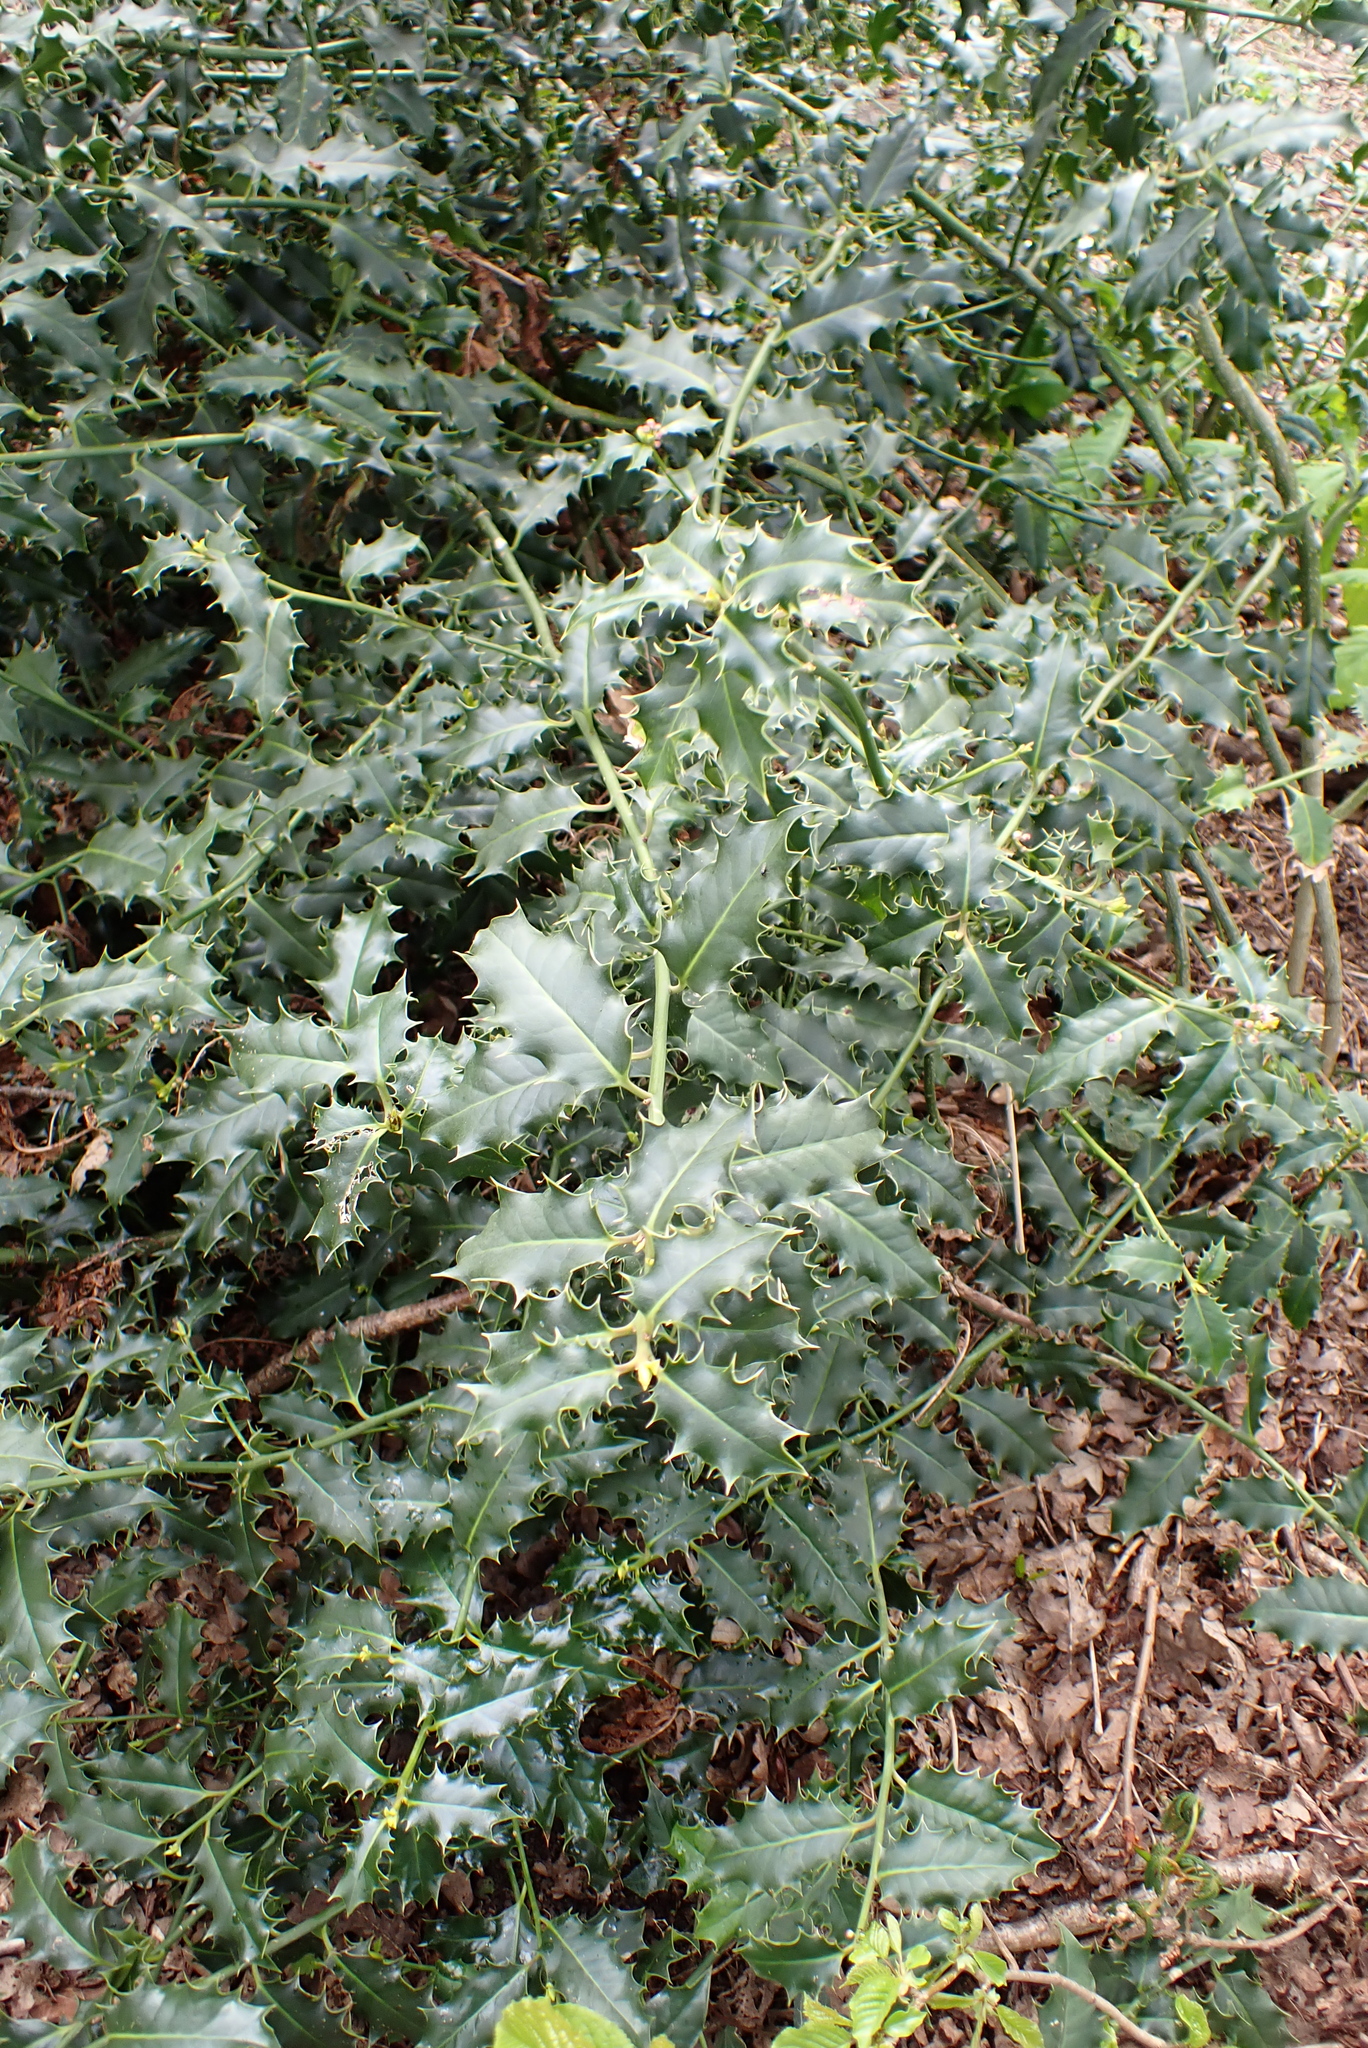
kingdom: Plantae
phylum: Tracheophyta
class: Magnoliopsida
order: Aquifoliales
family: Aquifoliaceae
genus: Ilex
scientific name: Ilex aquifolium
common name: English holly
